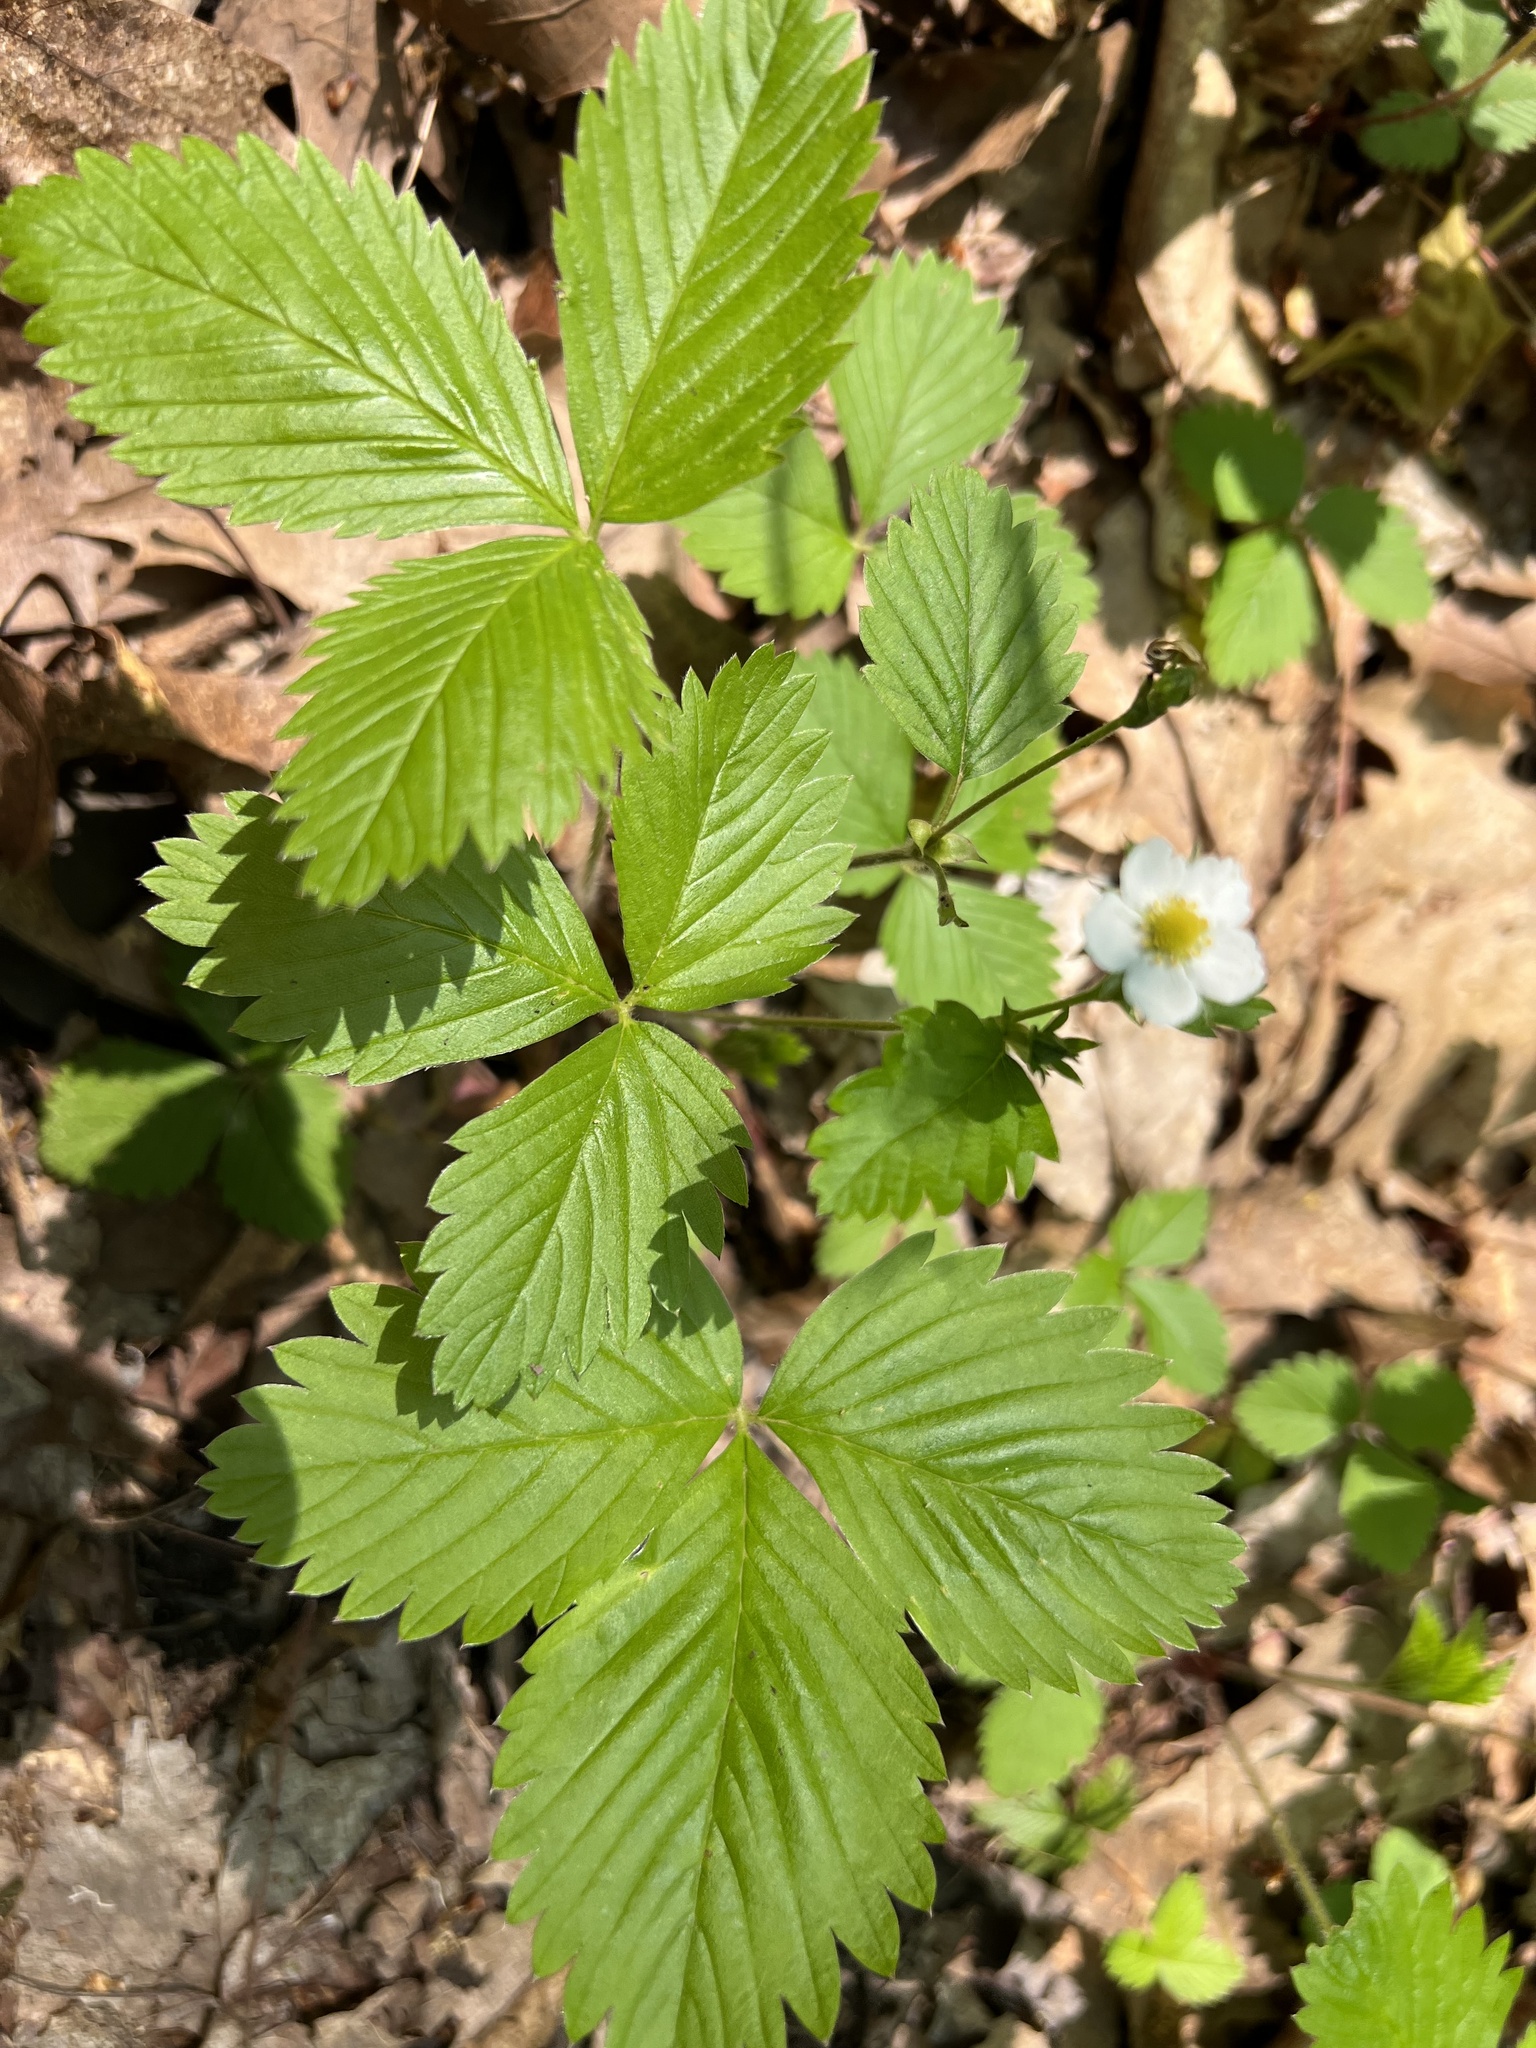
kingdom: Plantae
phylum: Tracheophyta
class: Magnoliopsida
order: Rosales
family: Rosaceae
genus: Fragaria
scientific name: Fragaria vesca
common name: Wild strawberry
